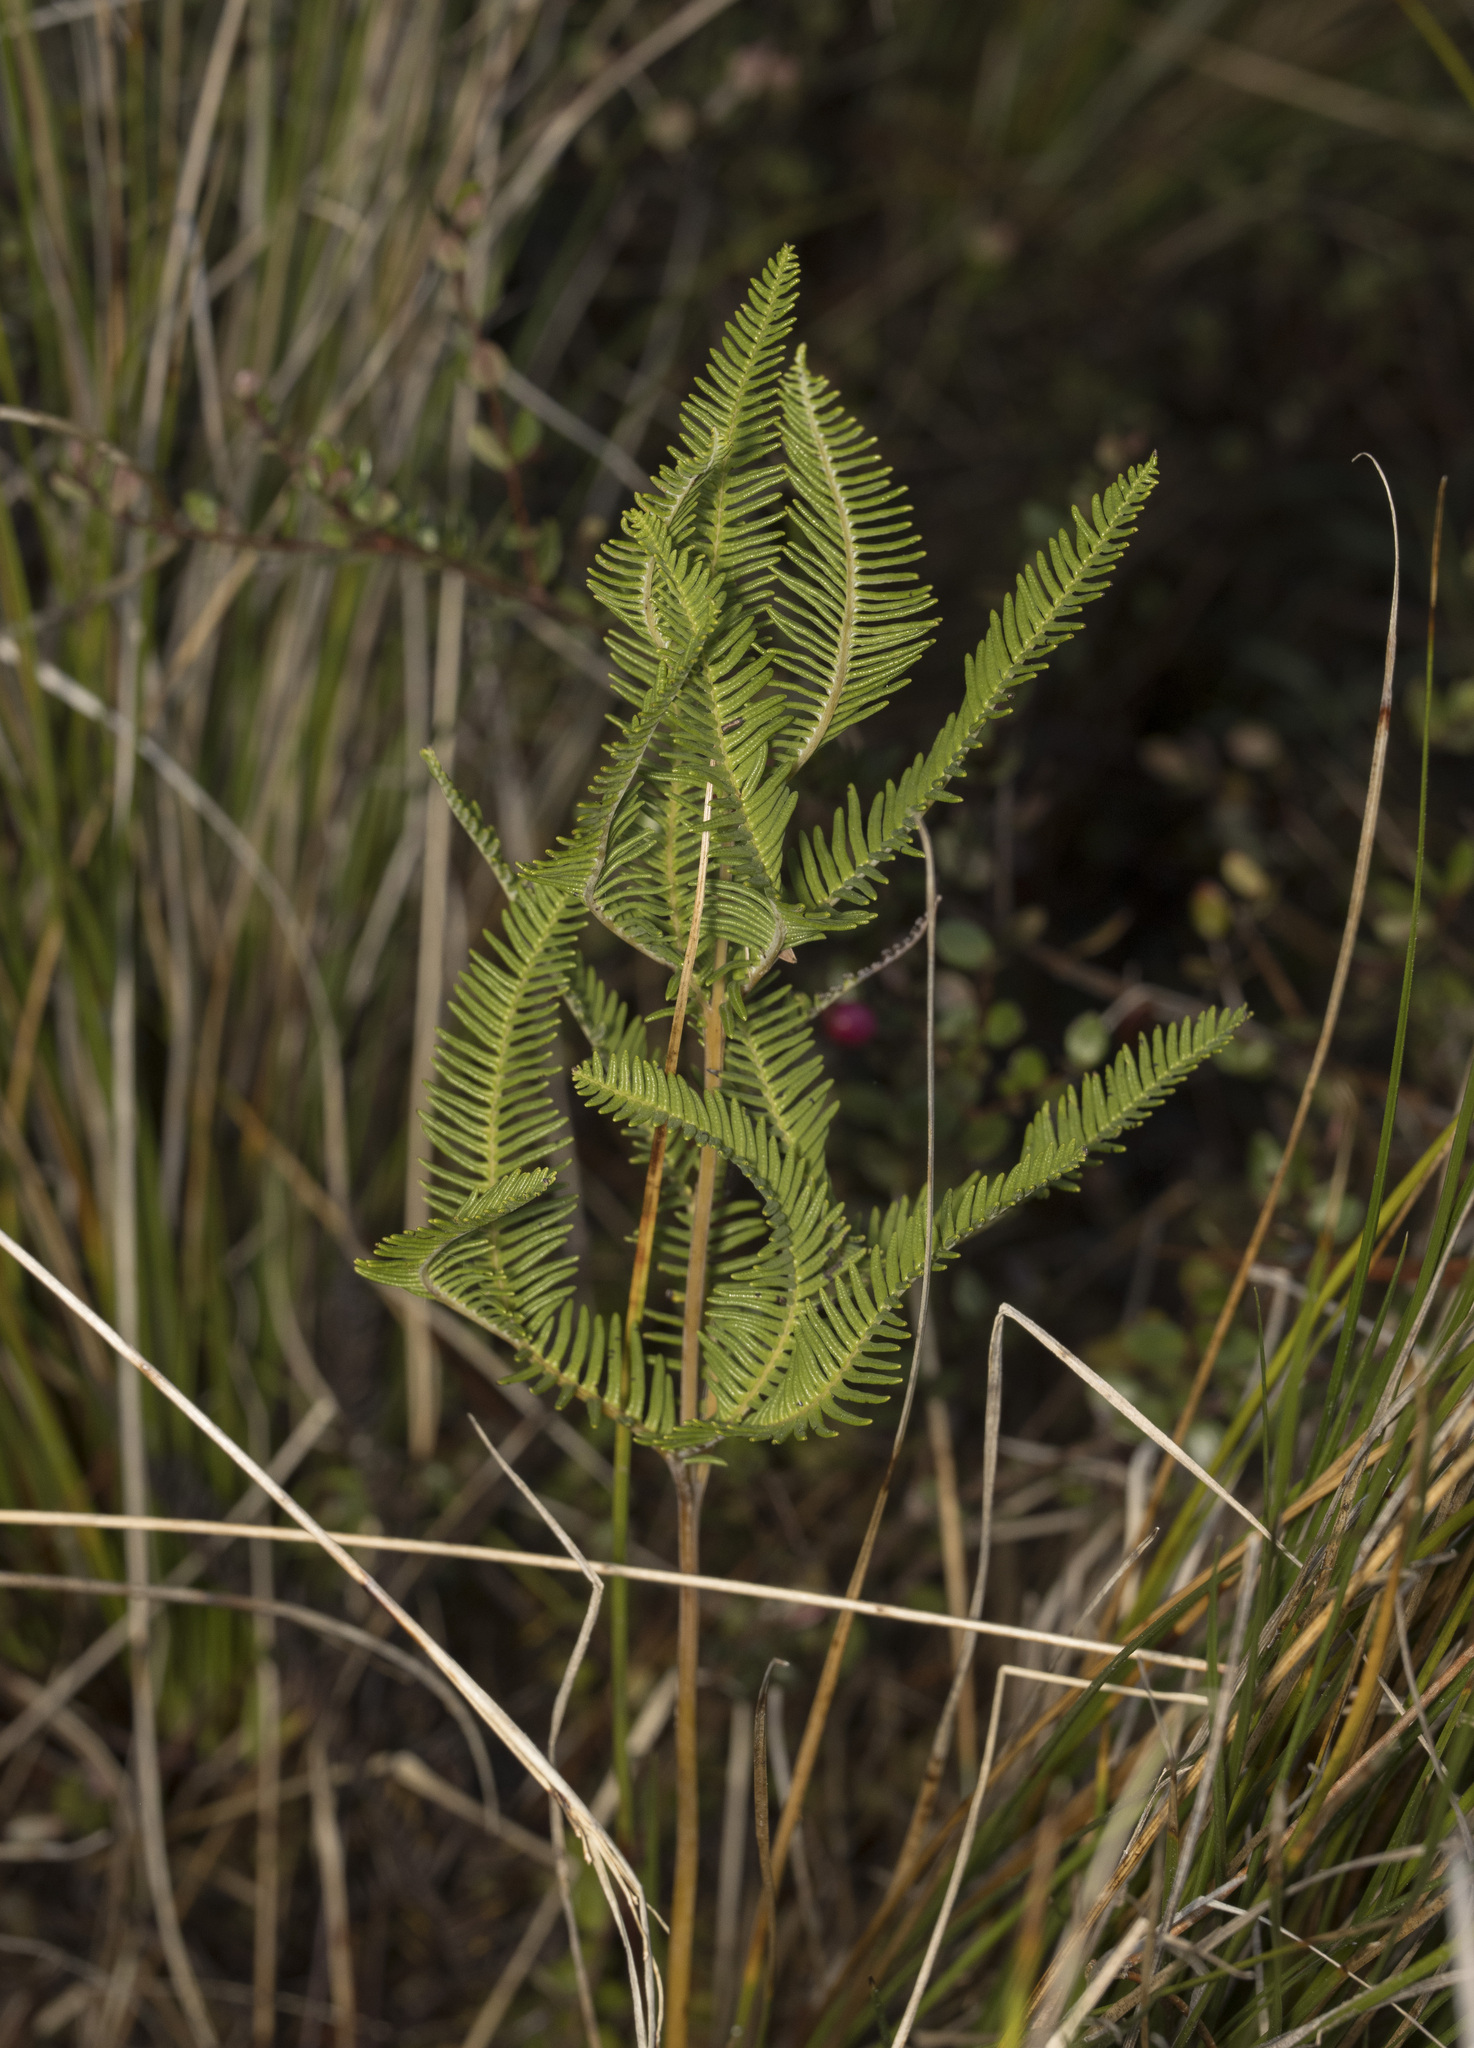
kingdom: Plantae
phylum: Tracheophyta
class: Polypodiopsida
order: Gleicheniales
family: Gleicheniaceae
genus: Sticherus
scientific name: Sticherus cryptocarpus
